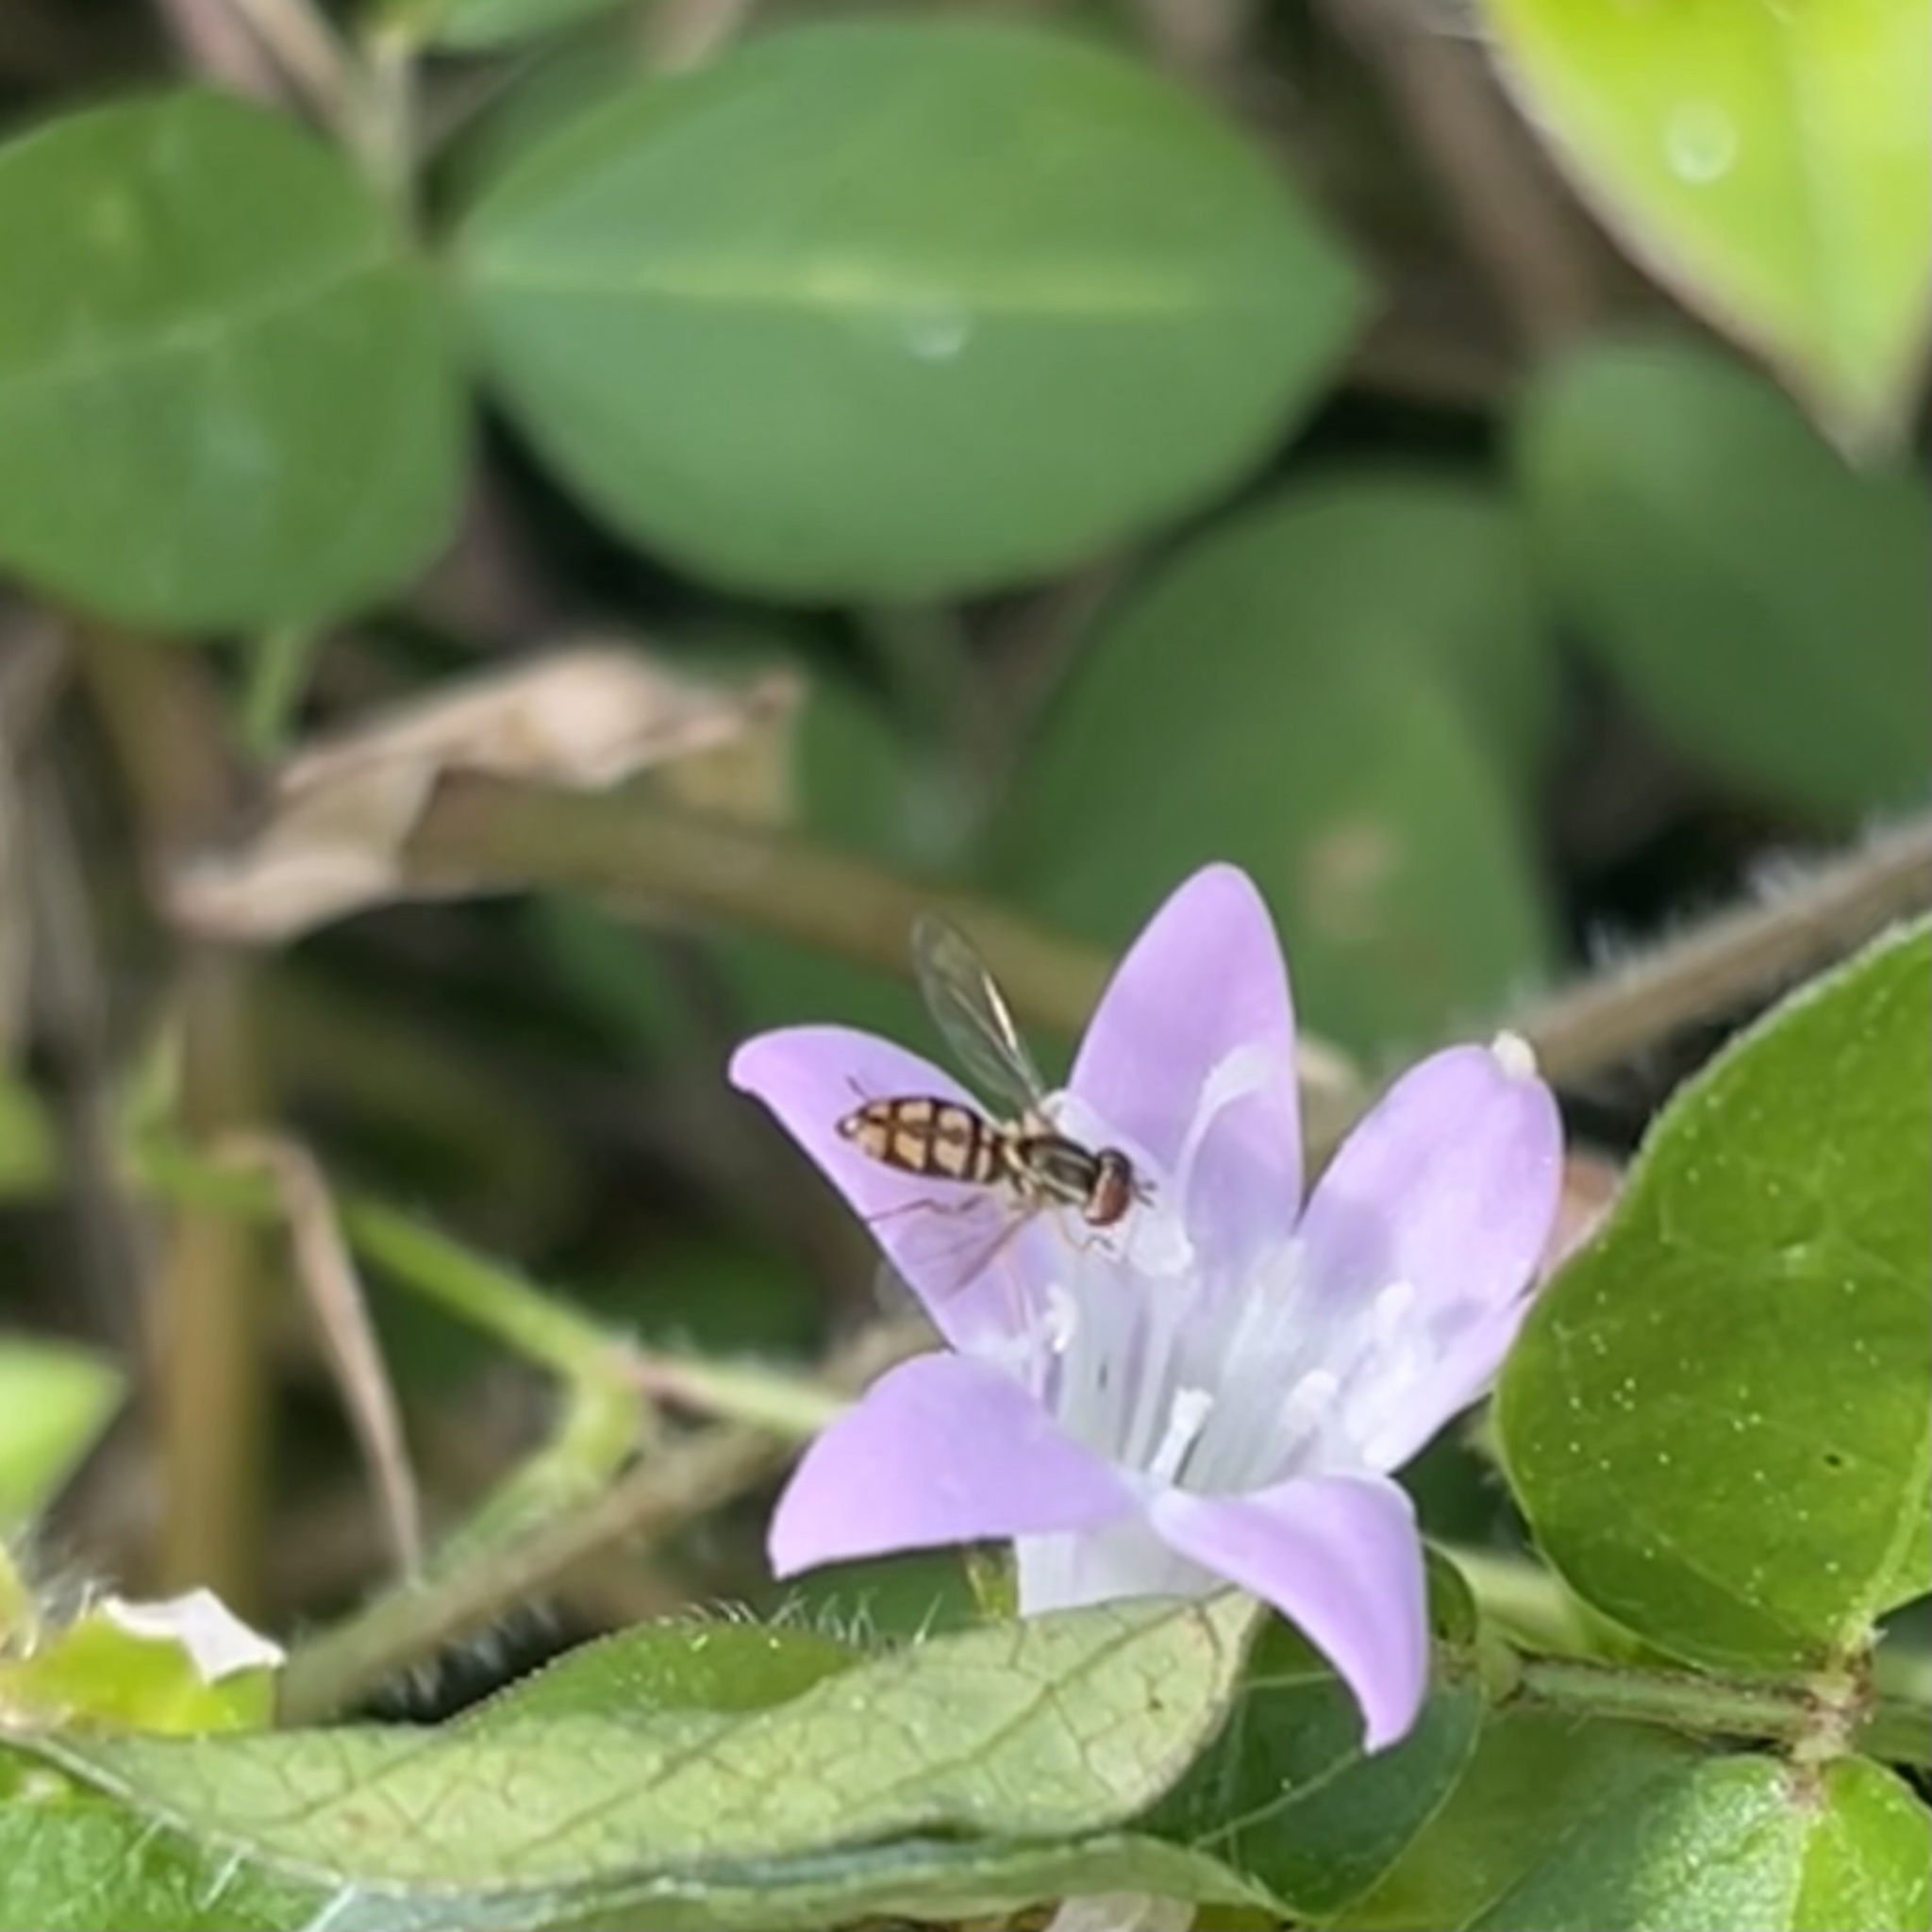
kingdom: Animalia
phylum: Arthropoda
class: Insecta
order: Diptera
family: Syrphidae
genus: Toxomerus
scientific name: Toxomerus floralis
